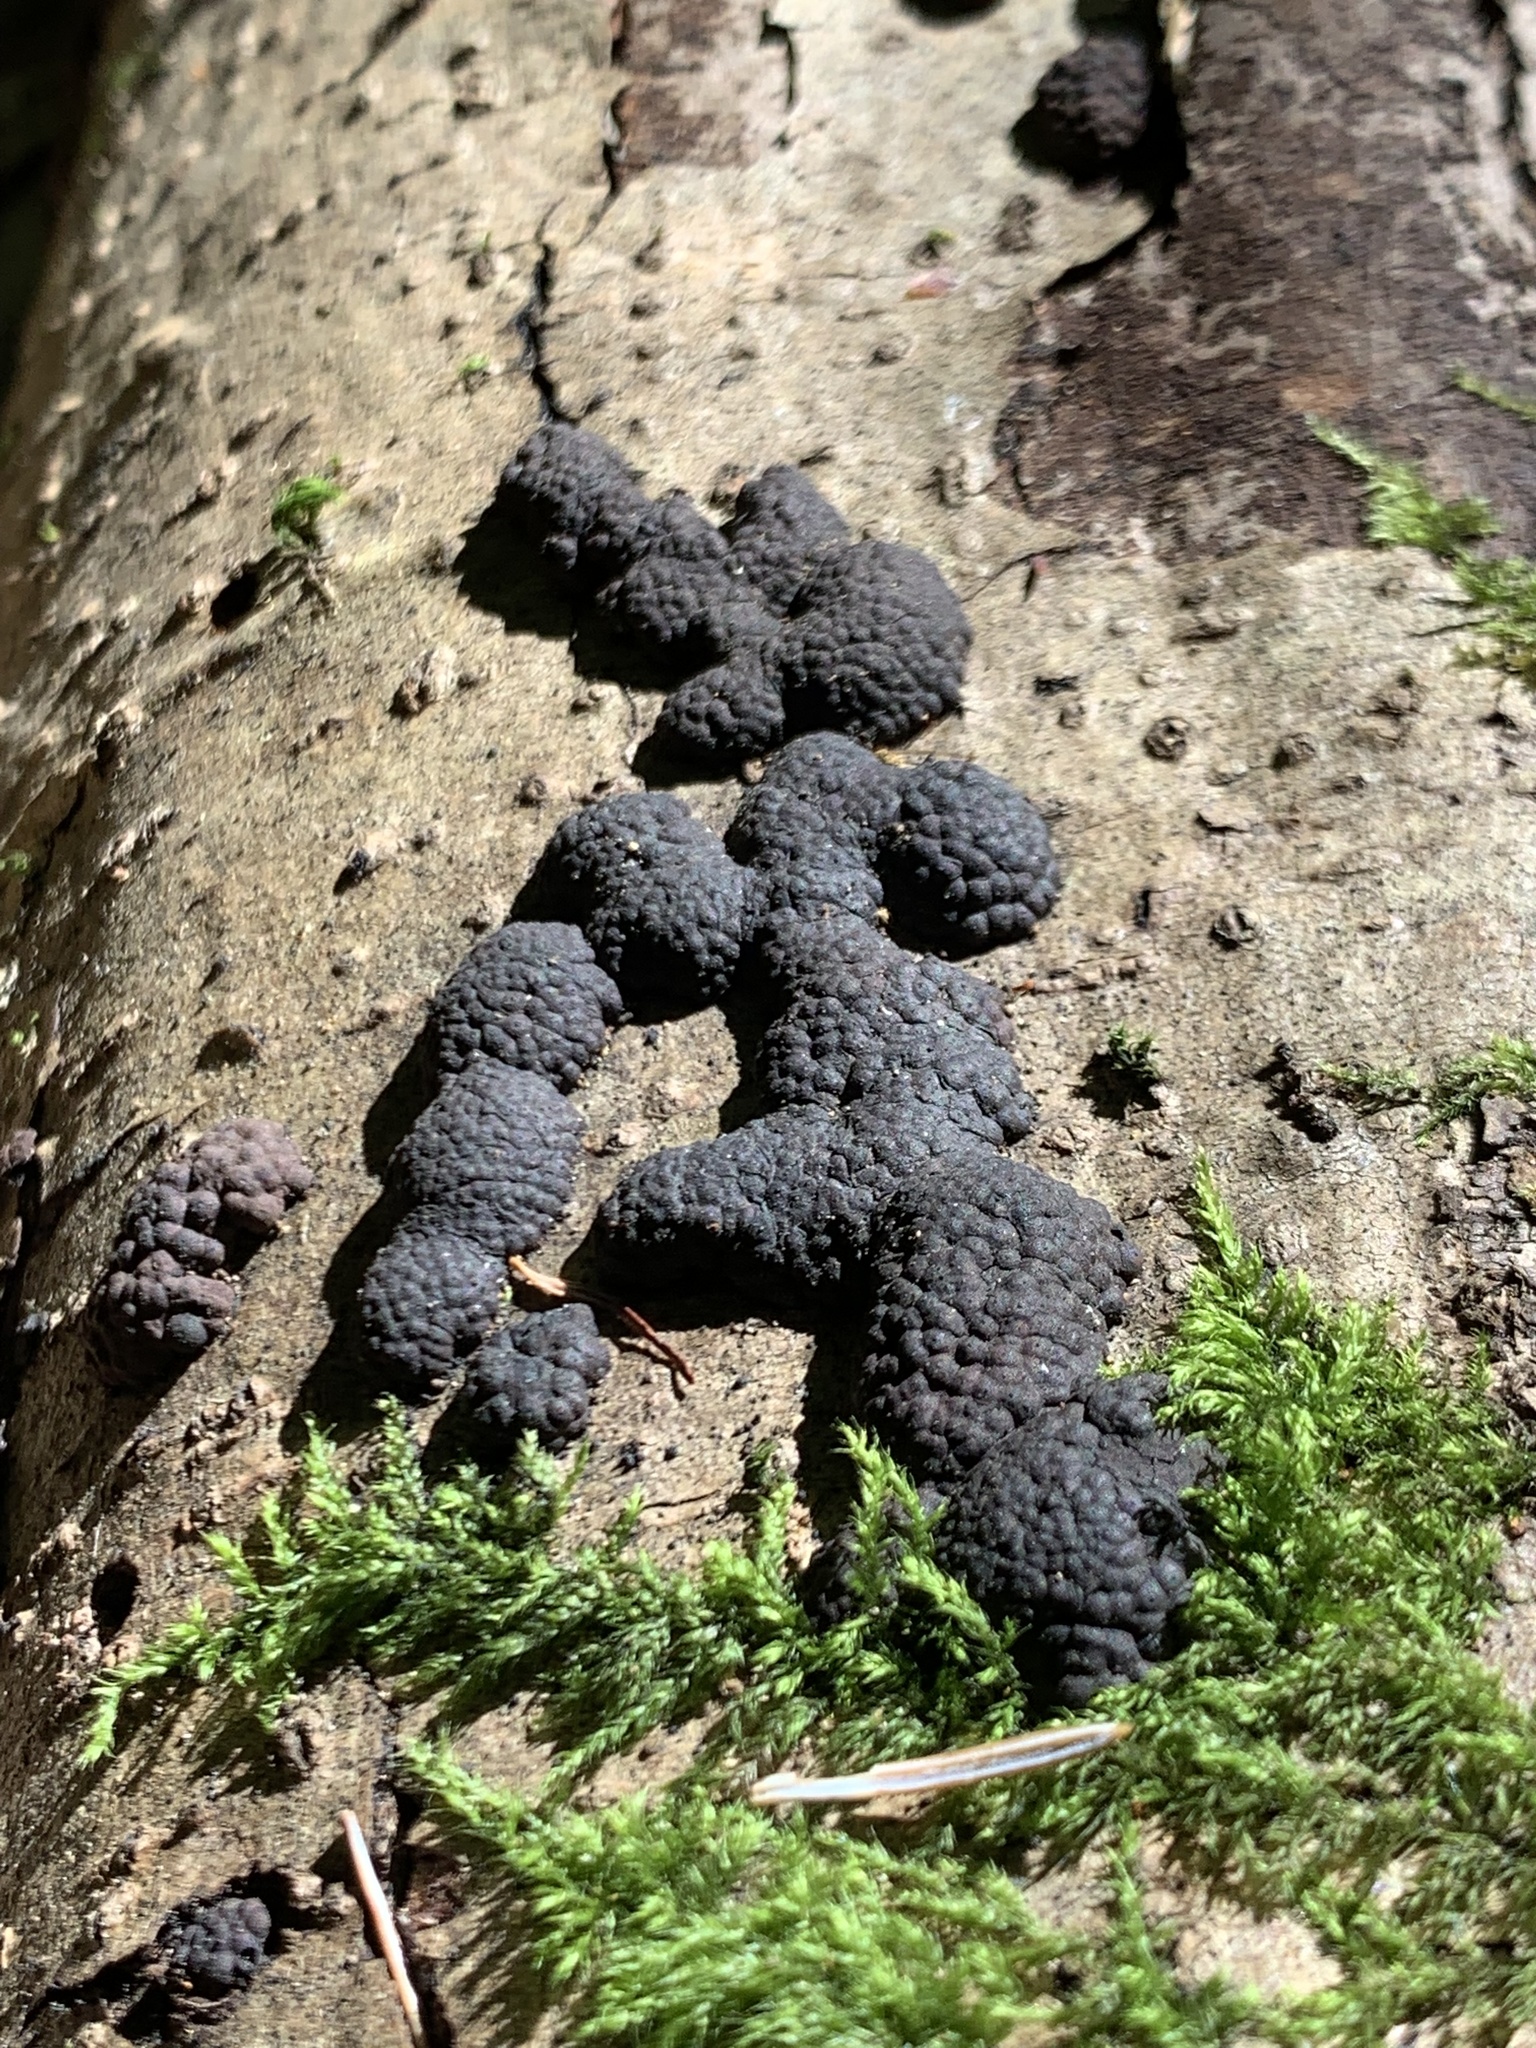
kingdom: Fungi
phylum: Ascomycota
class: Sordariomycetes
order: Xylariales
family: Hypoxylaceae
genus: Annulohypoxylon
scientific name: Annulohypoxylon thouarsianum
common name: Cramp balls
